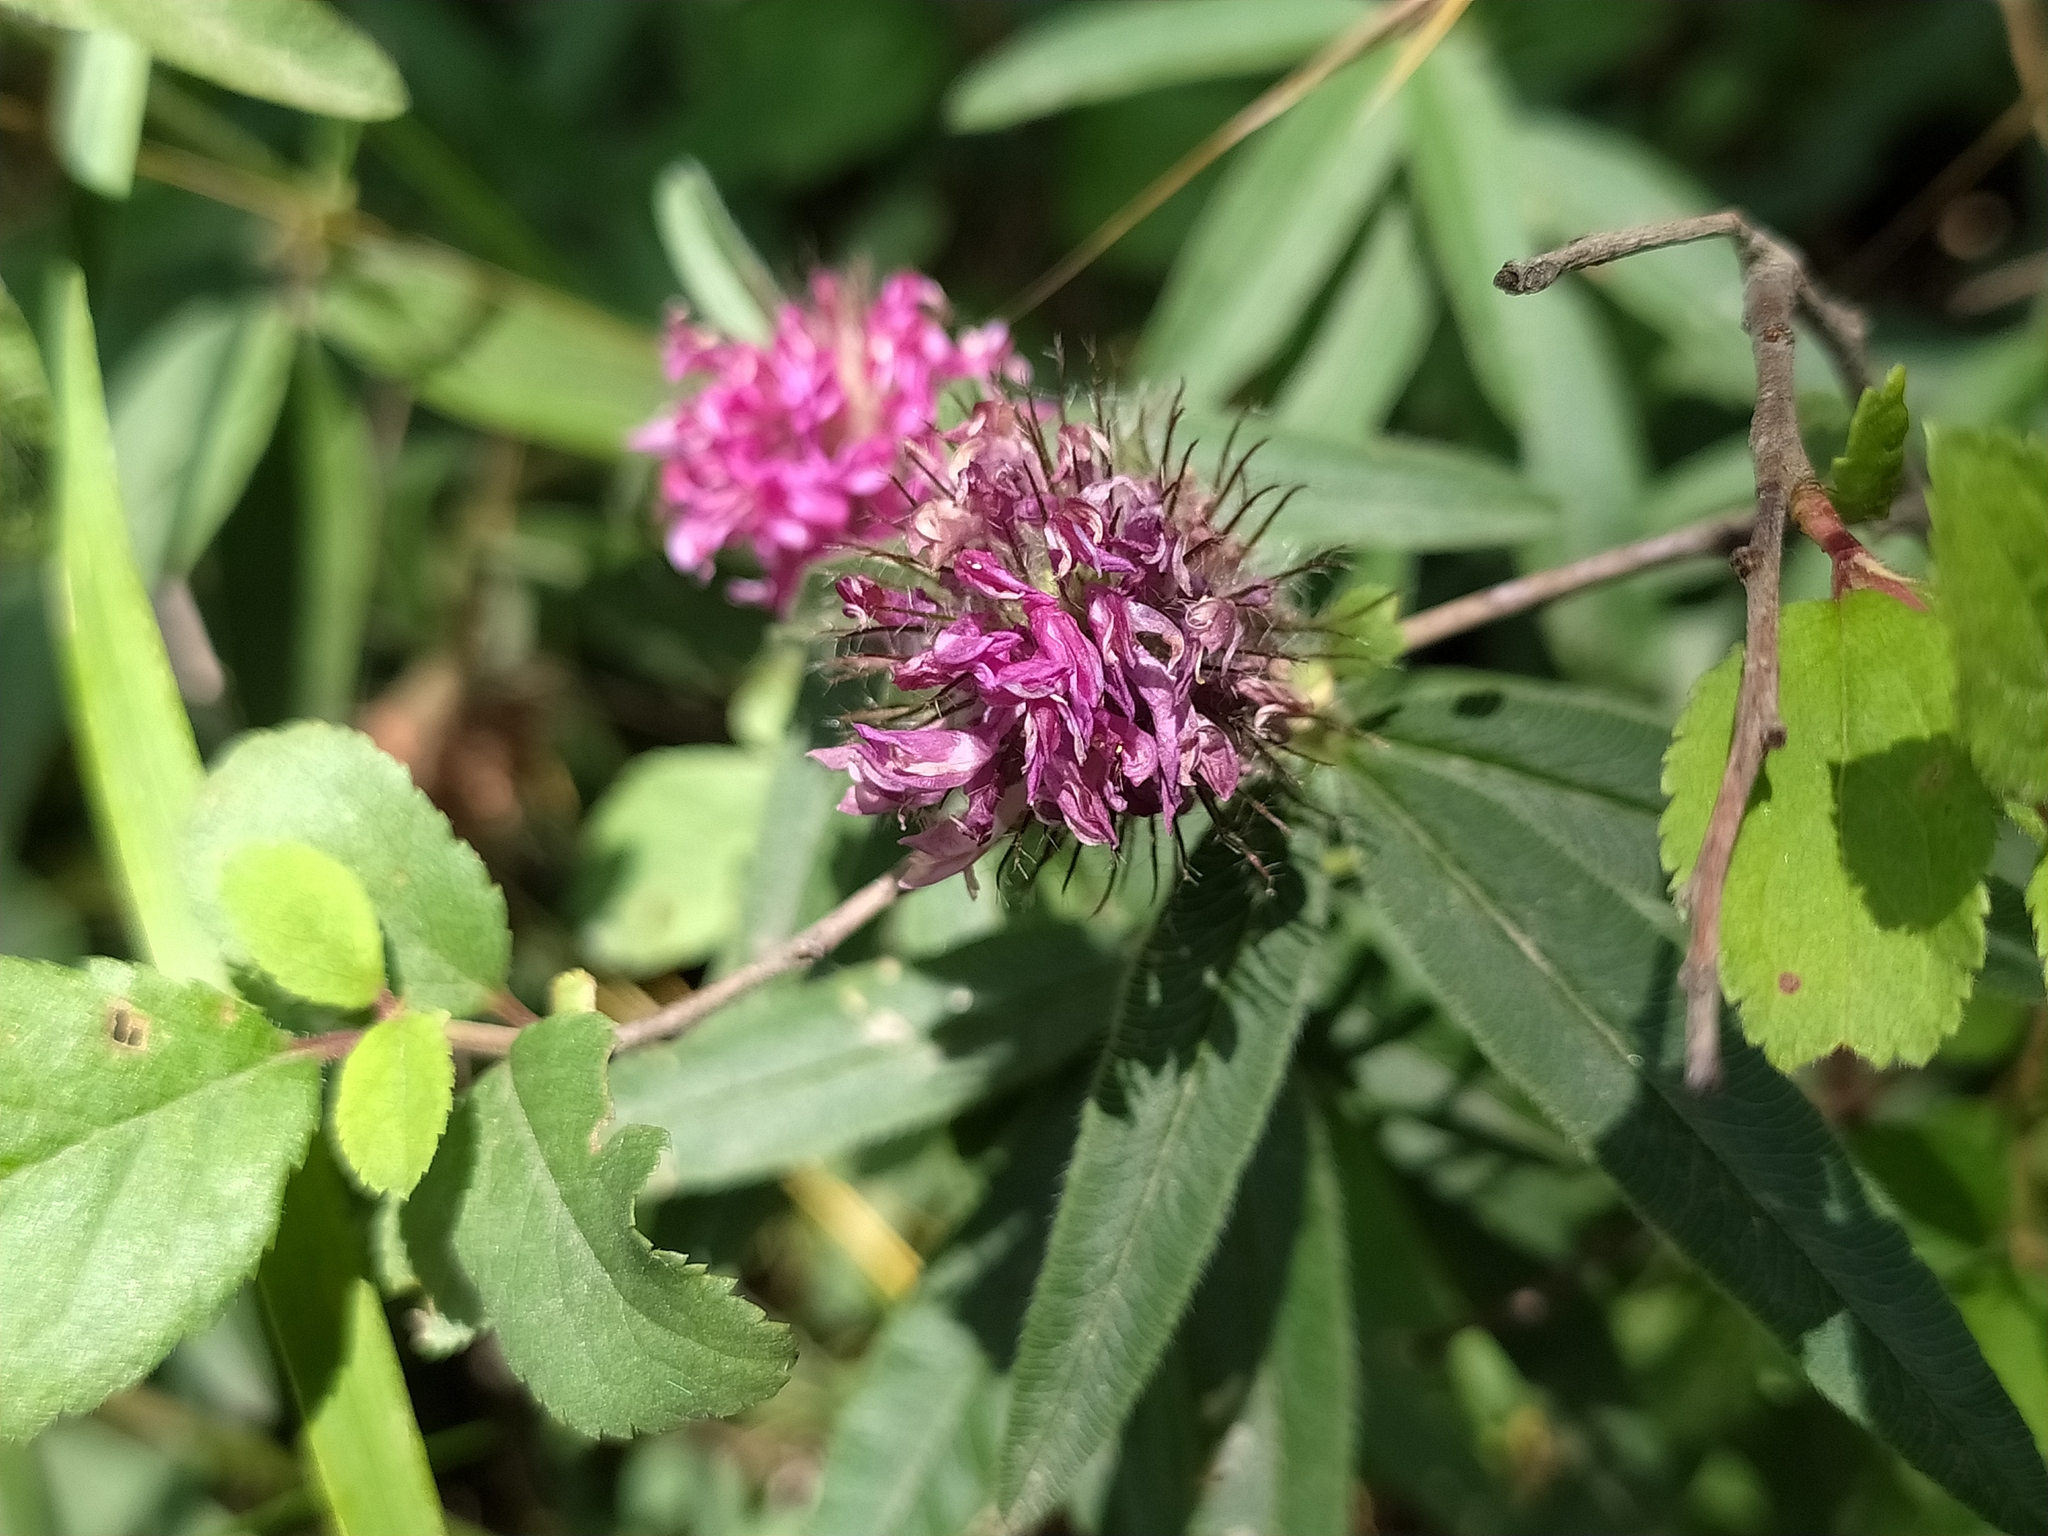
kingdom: Plantae
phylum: Tracheophyta
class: Magnoliopsida
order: Fabales
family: Fabaceae
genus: Trifolium
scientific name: Trifolium alpestre
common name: Owl-head clover
